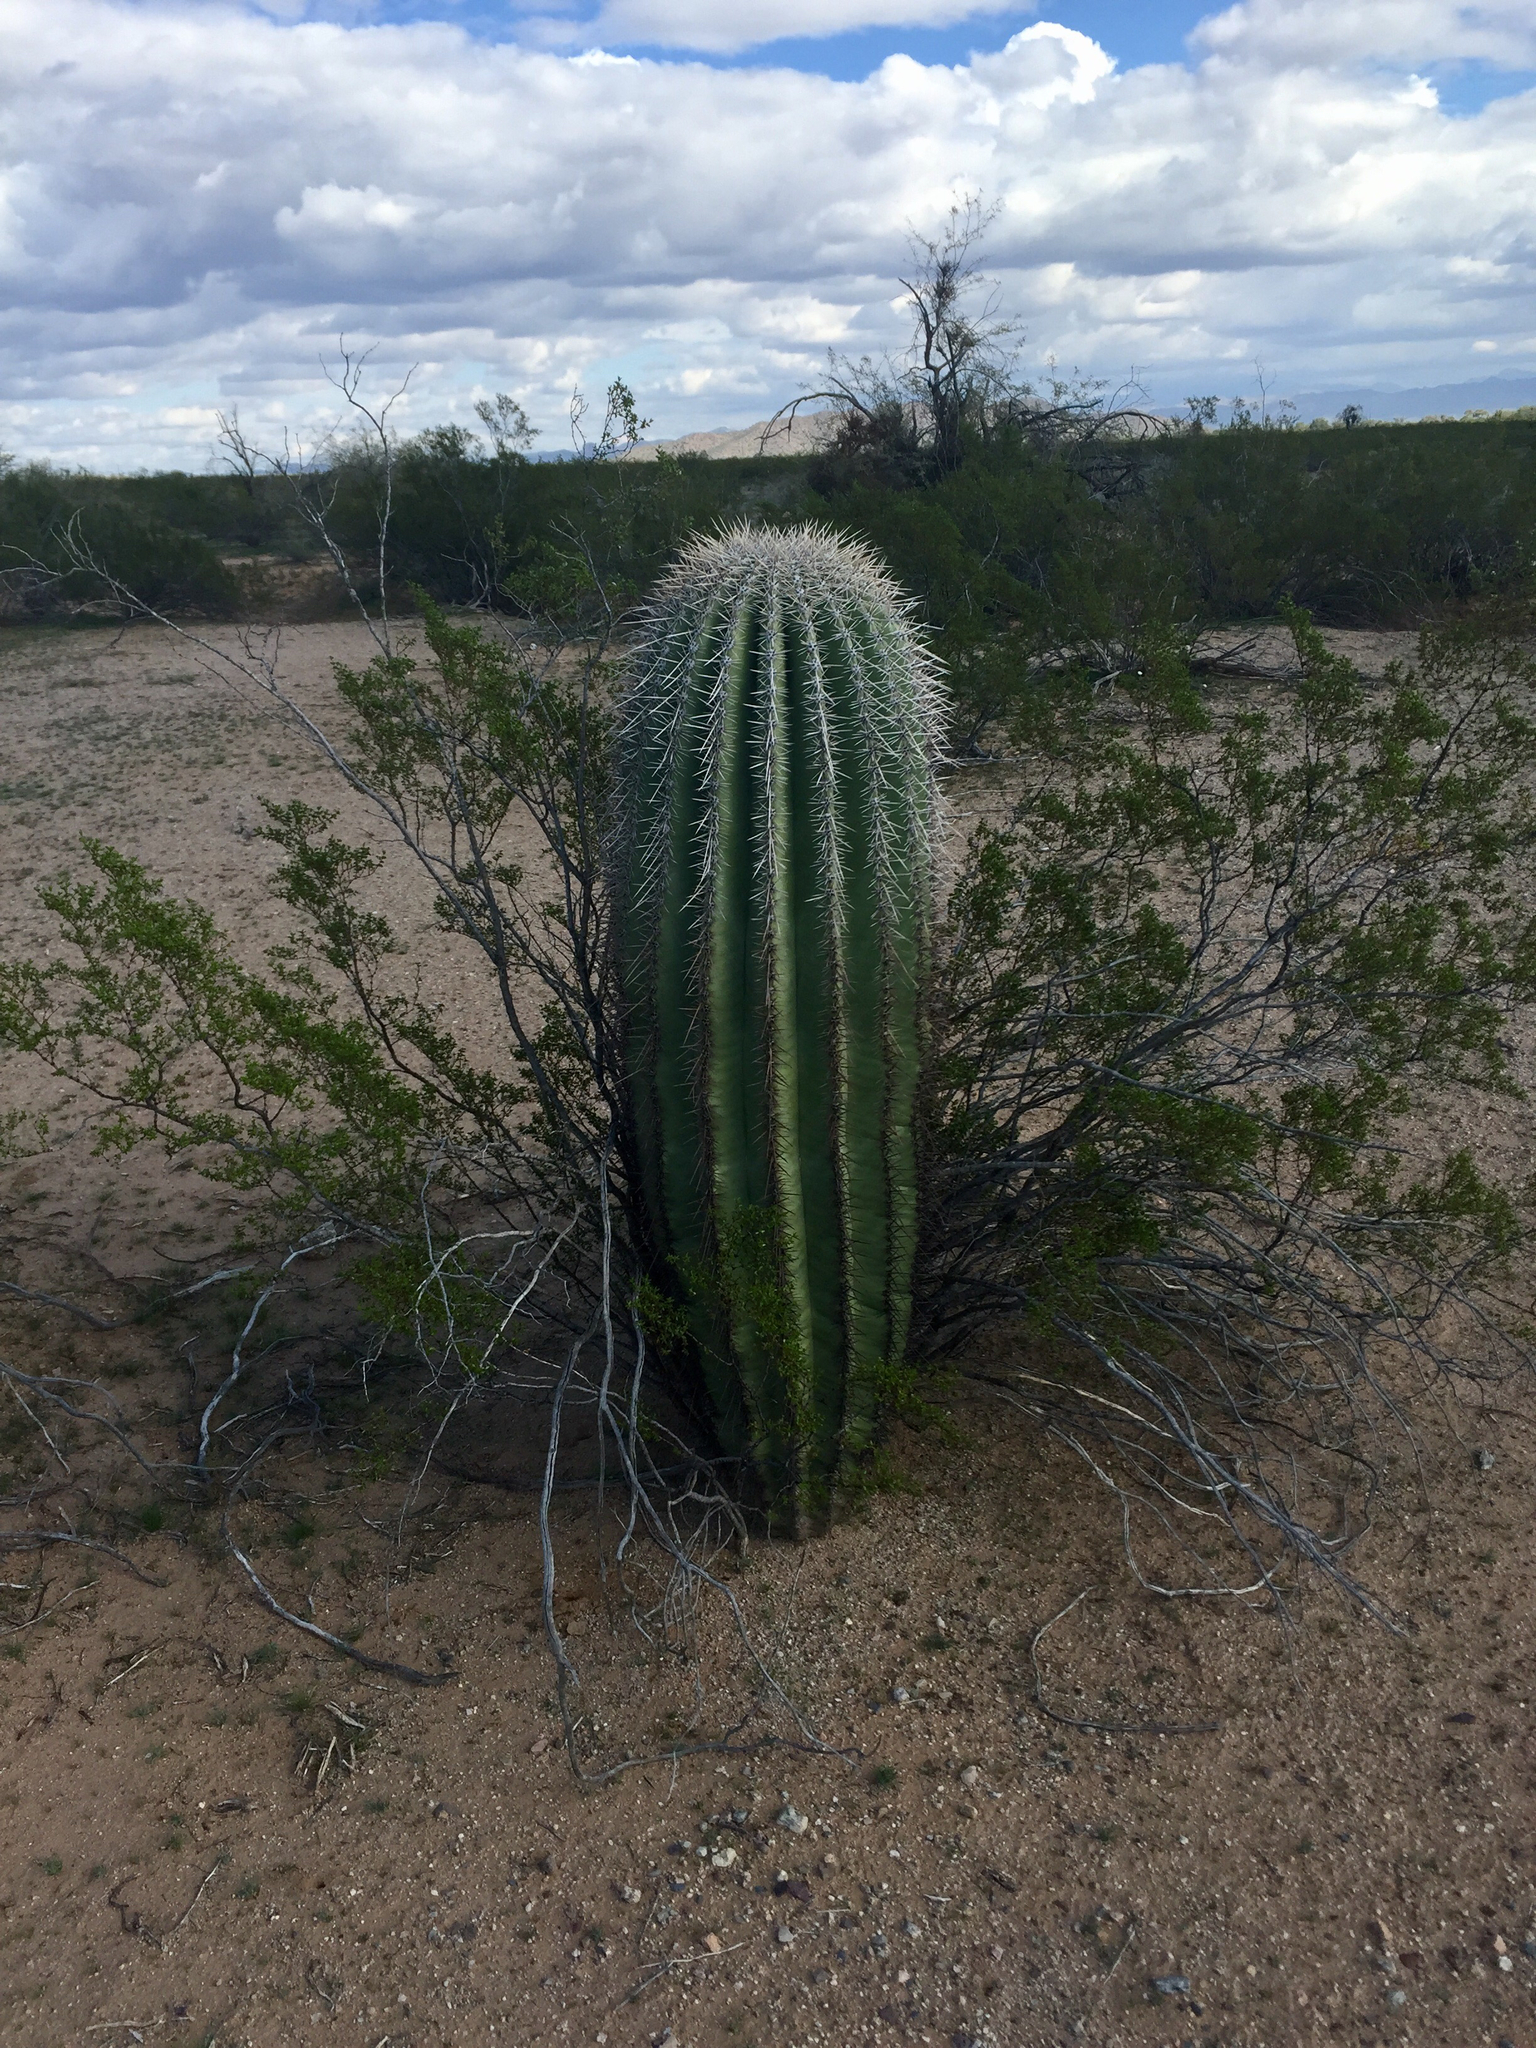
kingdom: Plantae
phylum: Tracheophyta
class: Magnoliopsida
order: Caryophyllales
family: Cactaceae
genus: Carnegiea
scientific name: Carnegiea gigantea
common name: Saguaro
